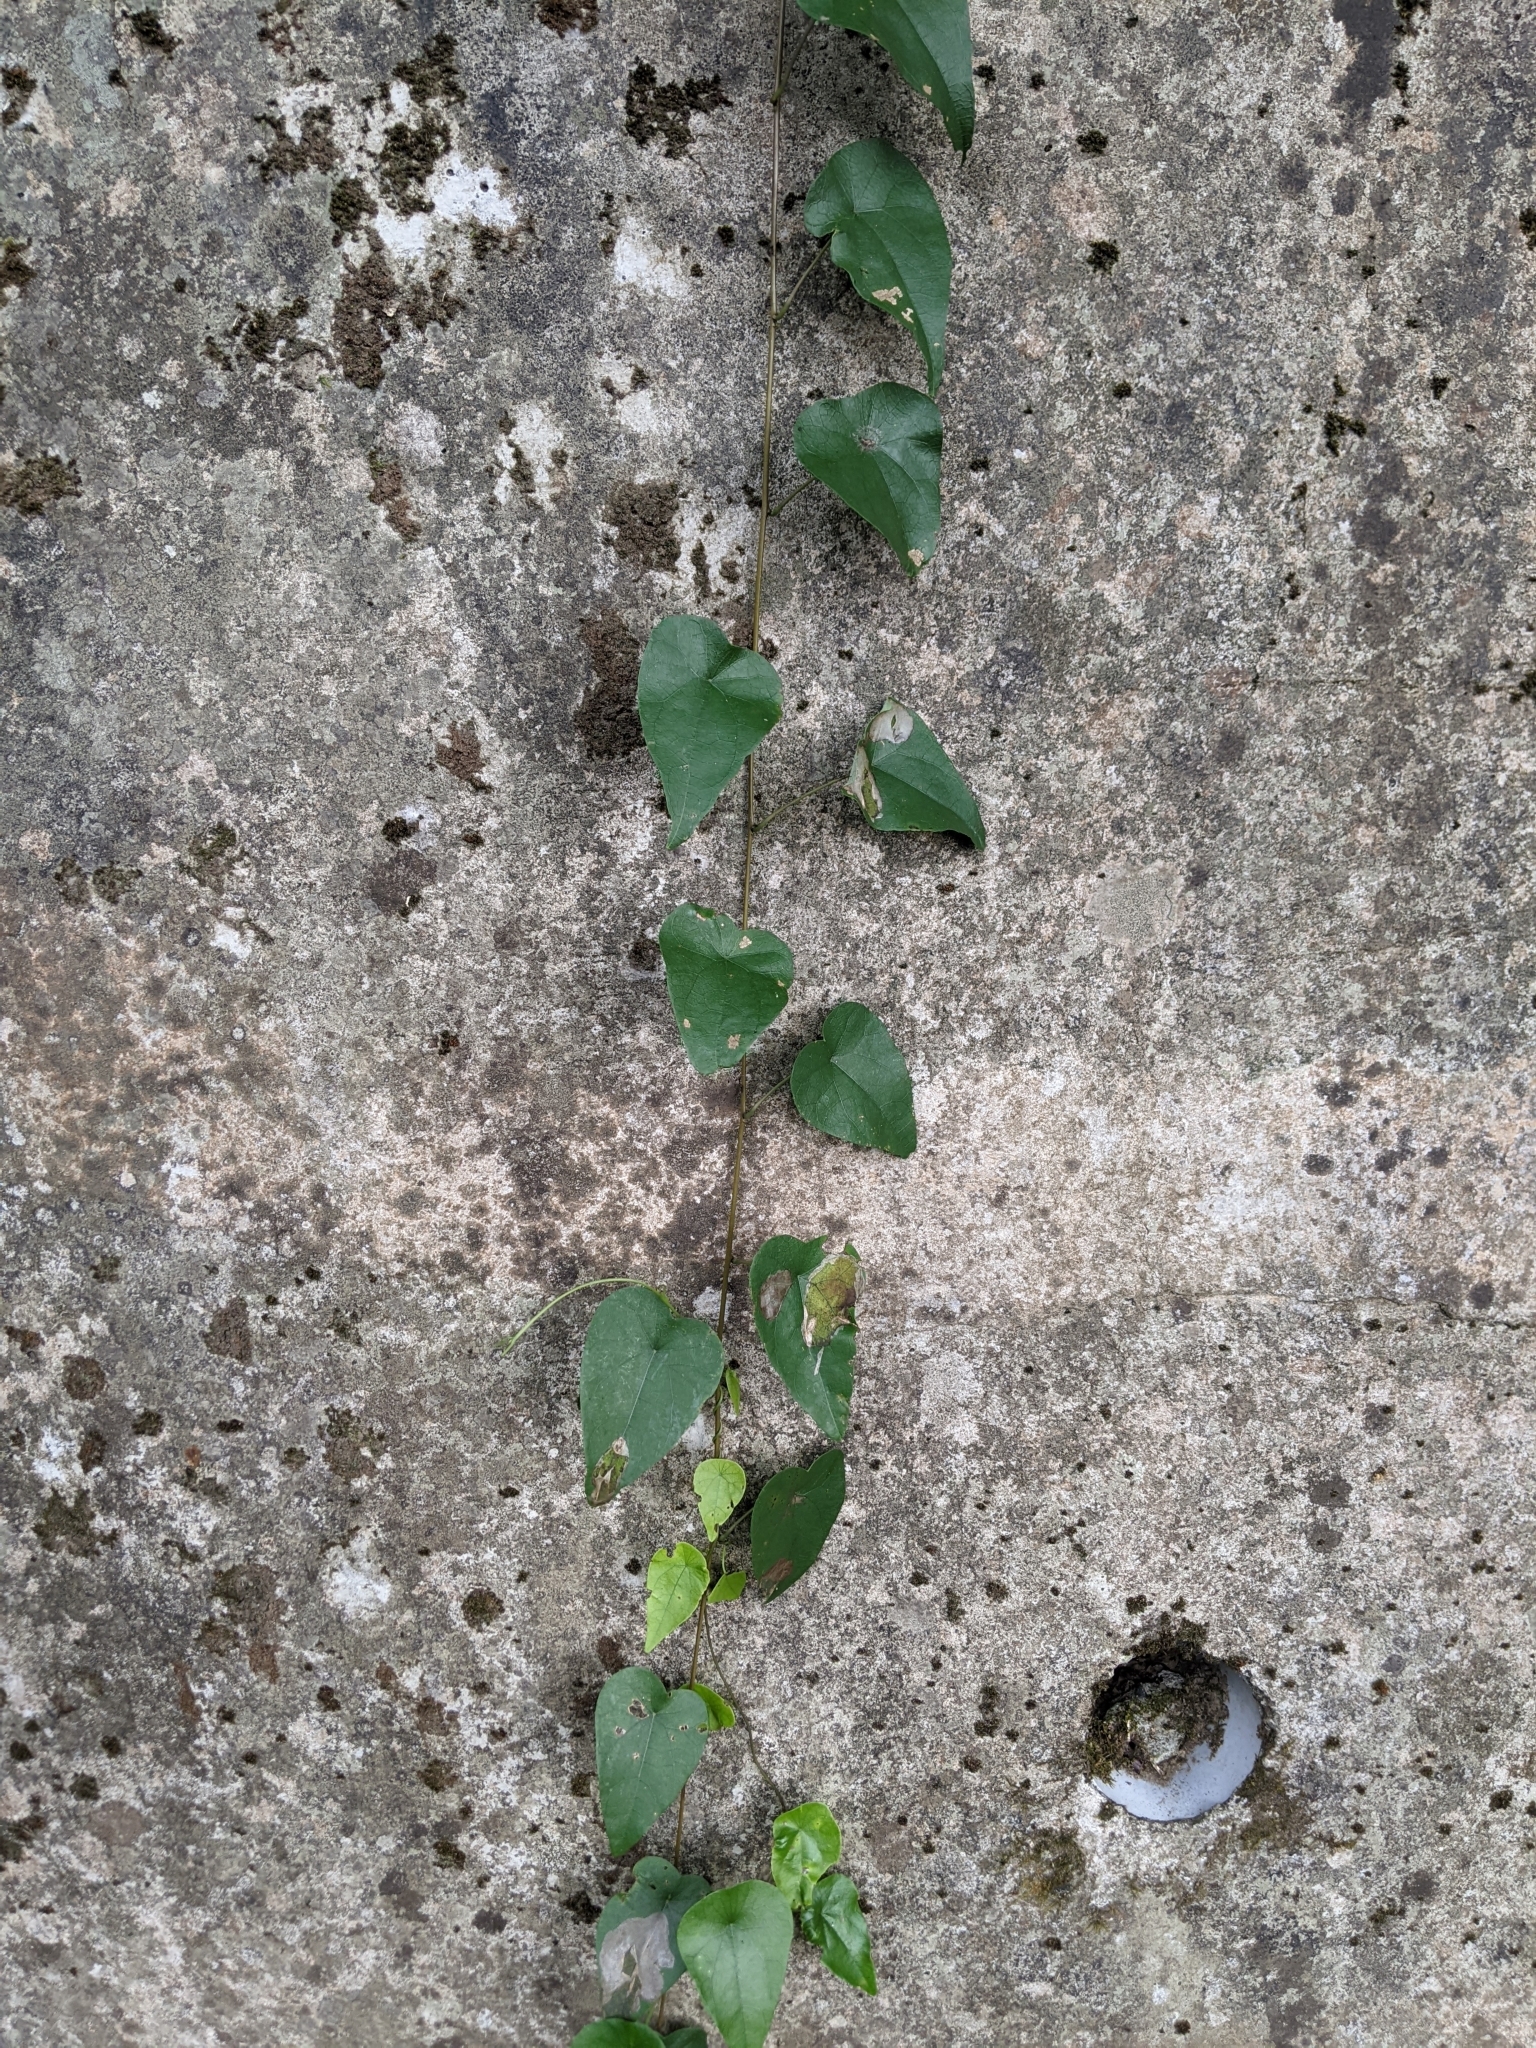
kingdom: Plantae
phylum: Tracheophyta
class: Magnoliopsida
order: Ranunculales
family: Menispermaceae
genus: Stephania
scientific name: Stephania longa
